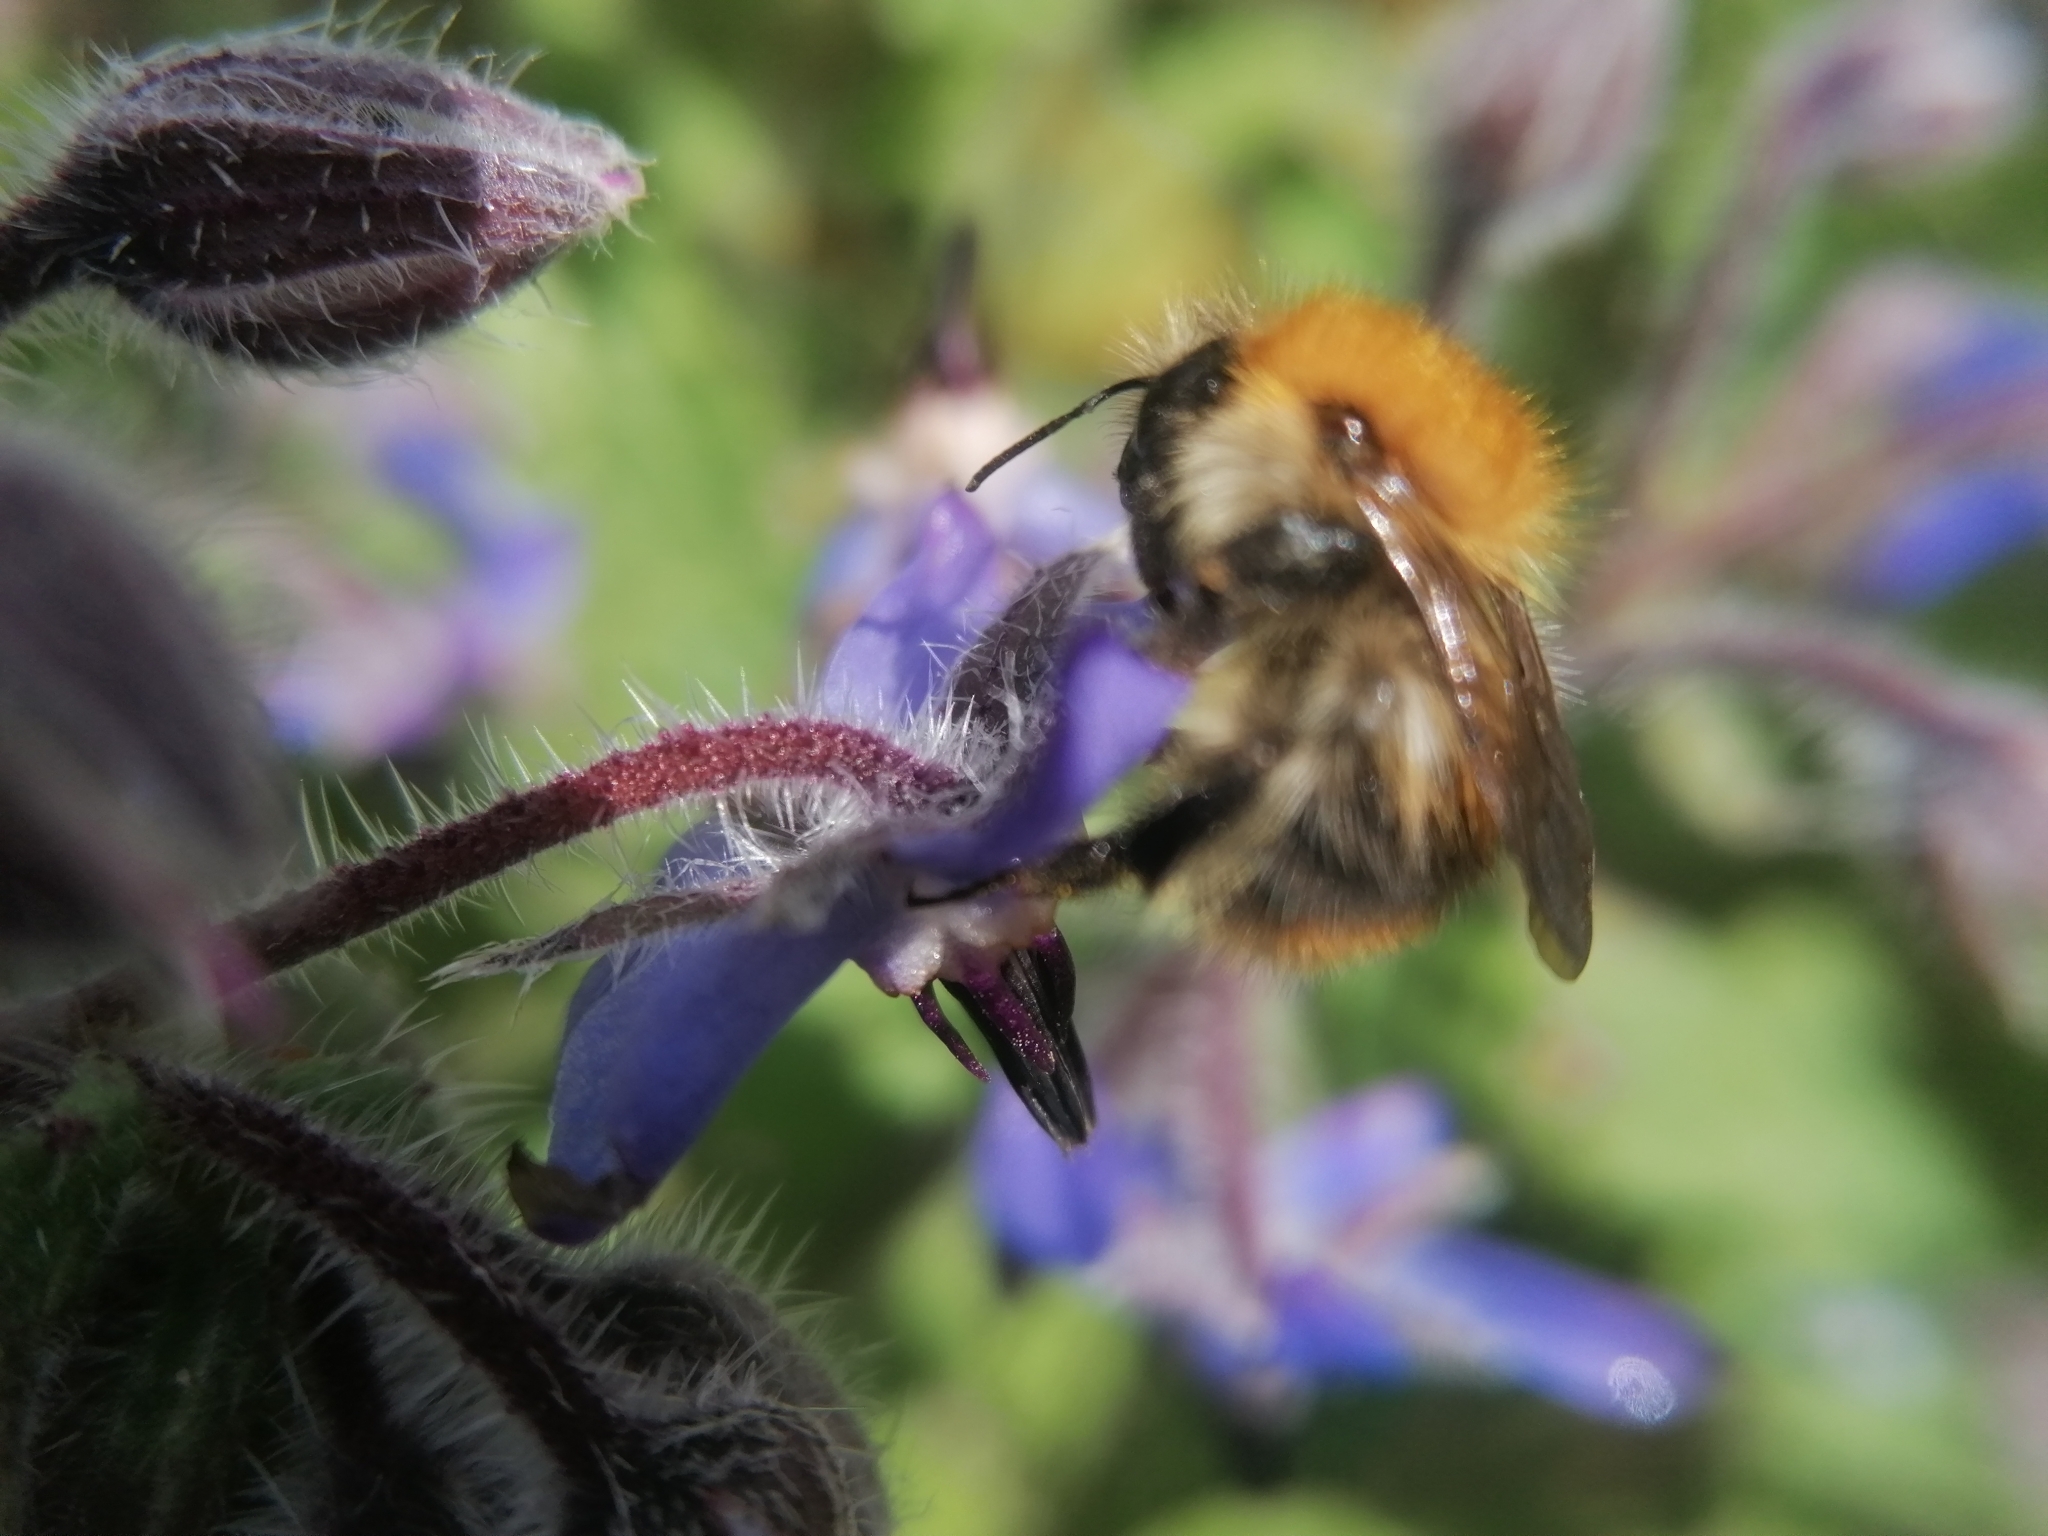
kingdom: Animalia
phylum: Arthropoda
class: Insecta
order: Hymenoptera
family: Apidae
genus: Bombus
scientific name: Bombus pascuorum
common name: Common carder bee
